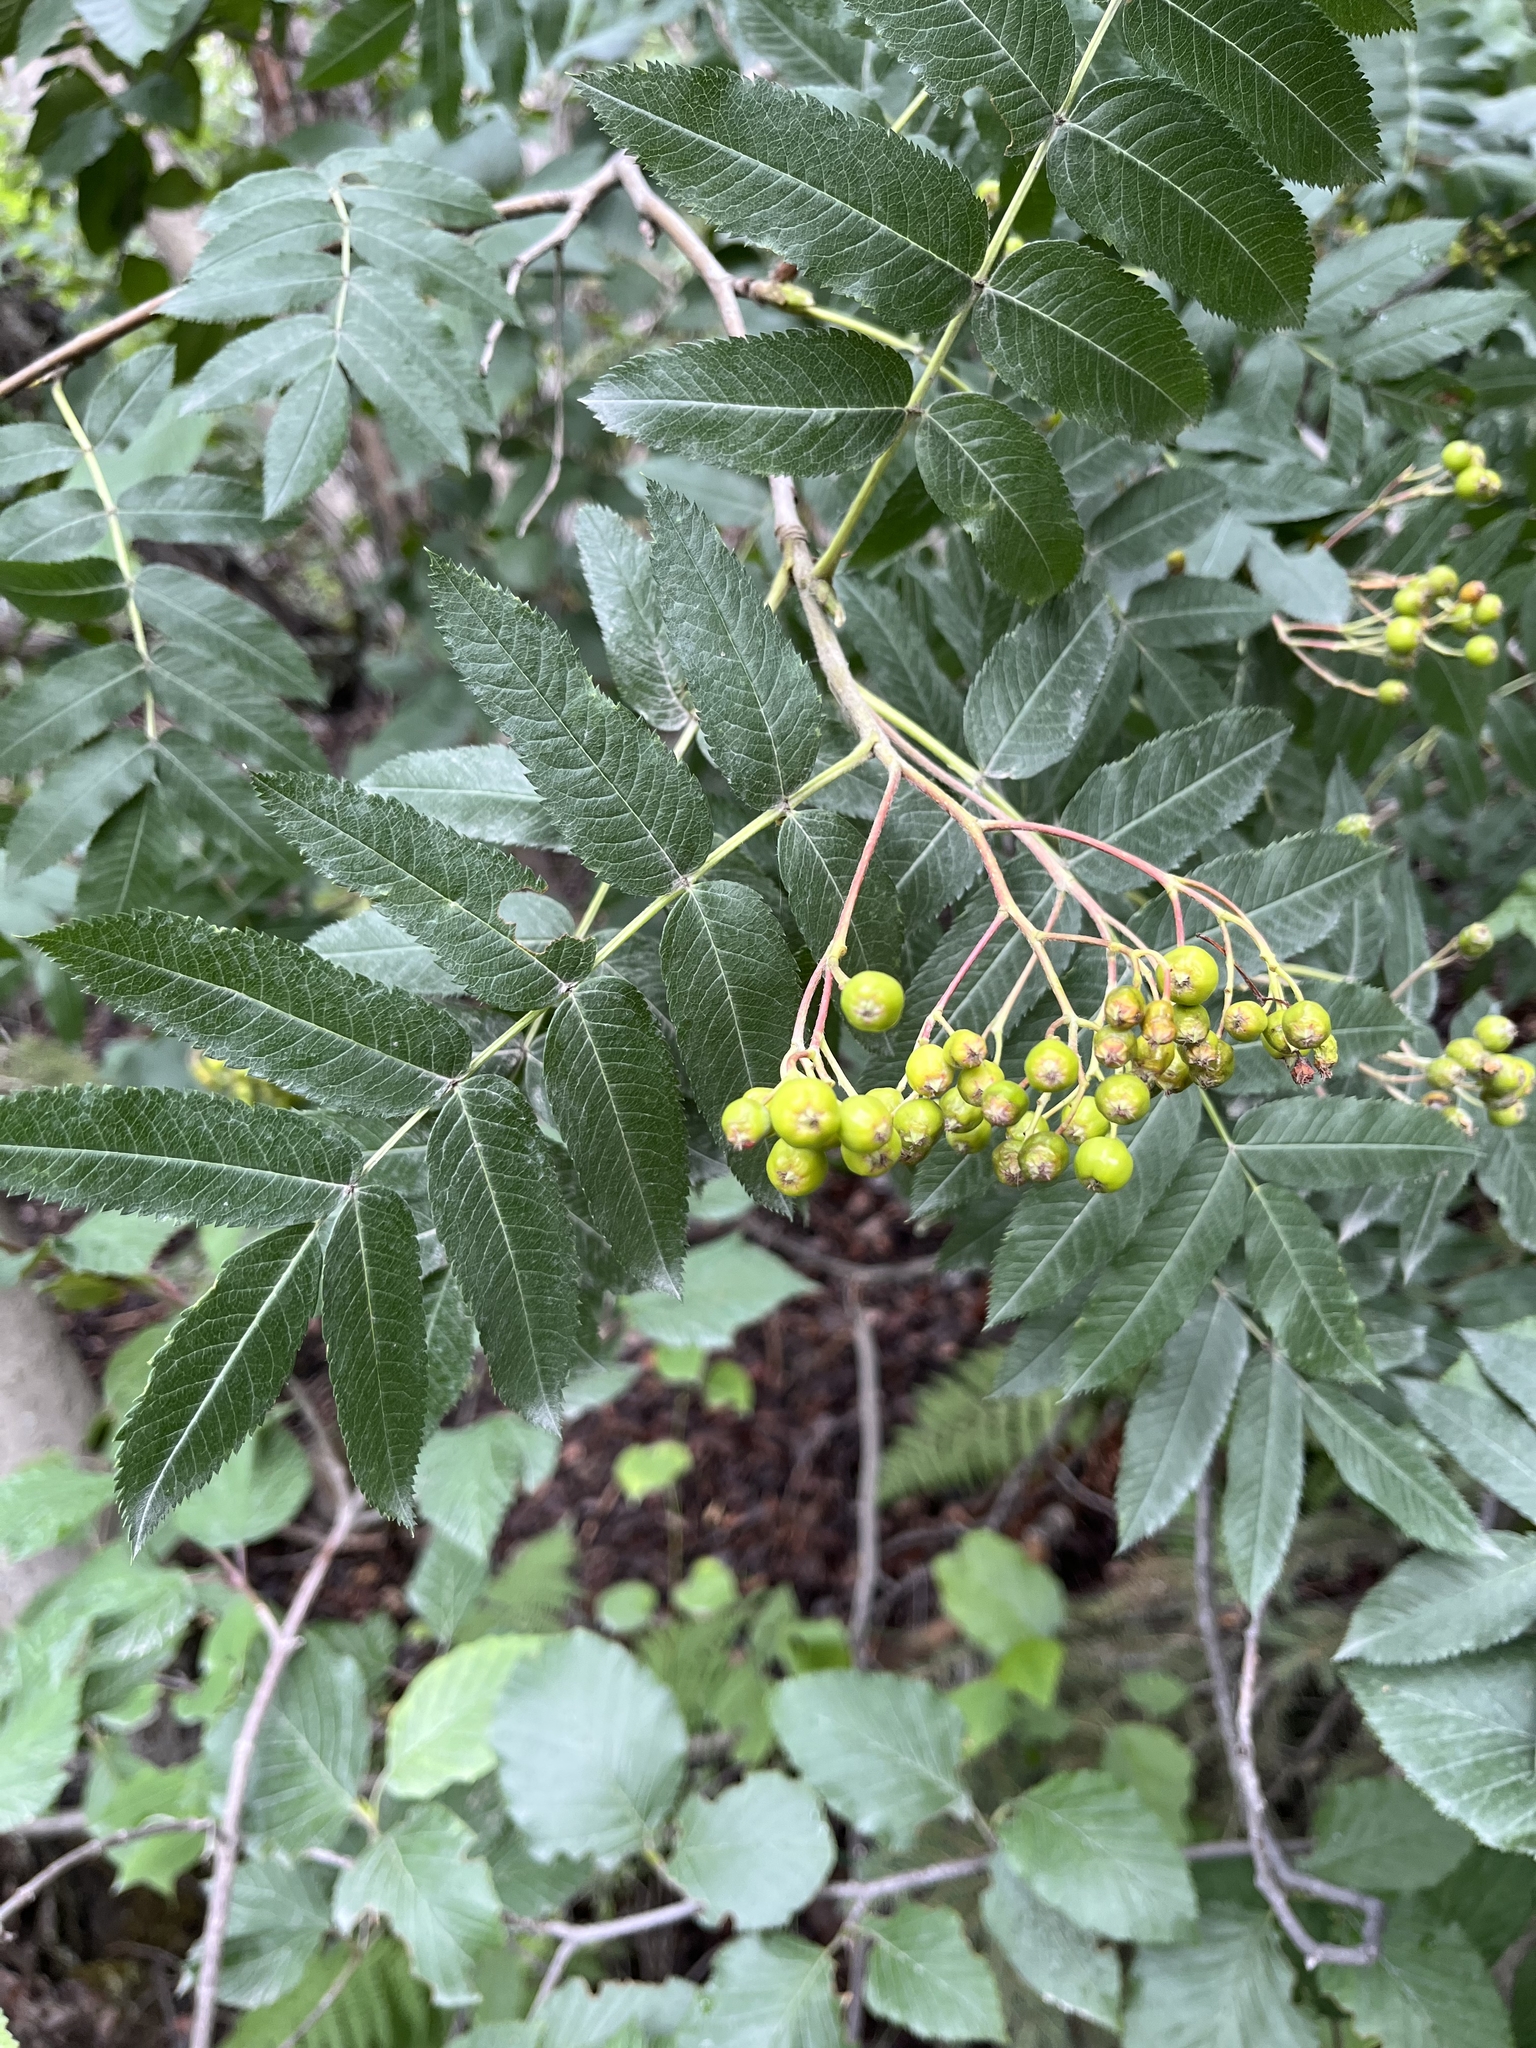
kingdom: Plantae
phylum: Tracheophyta
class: Magnoliopsida
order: Rosales
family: Rosaceae
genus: Sorbus
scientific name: Sorbus scopulina
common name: Greene's mountain-ash
